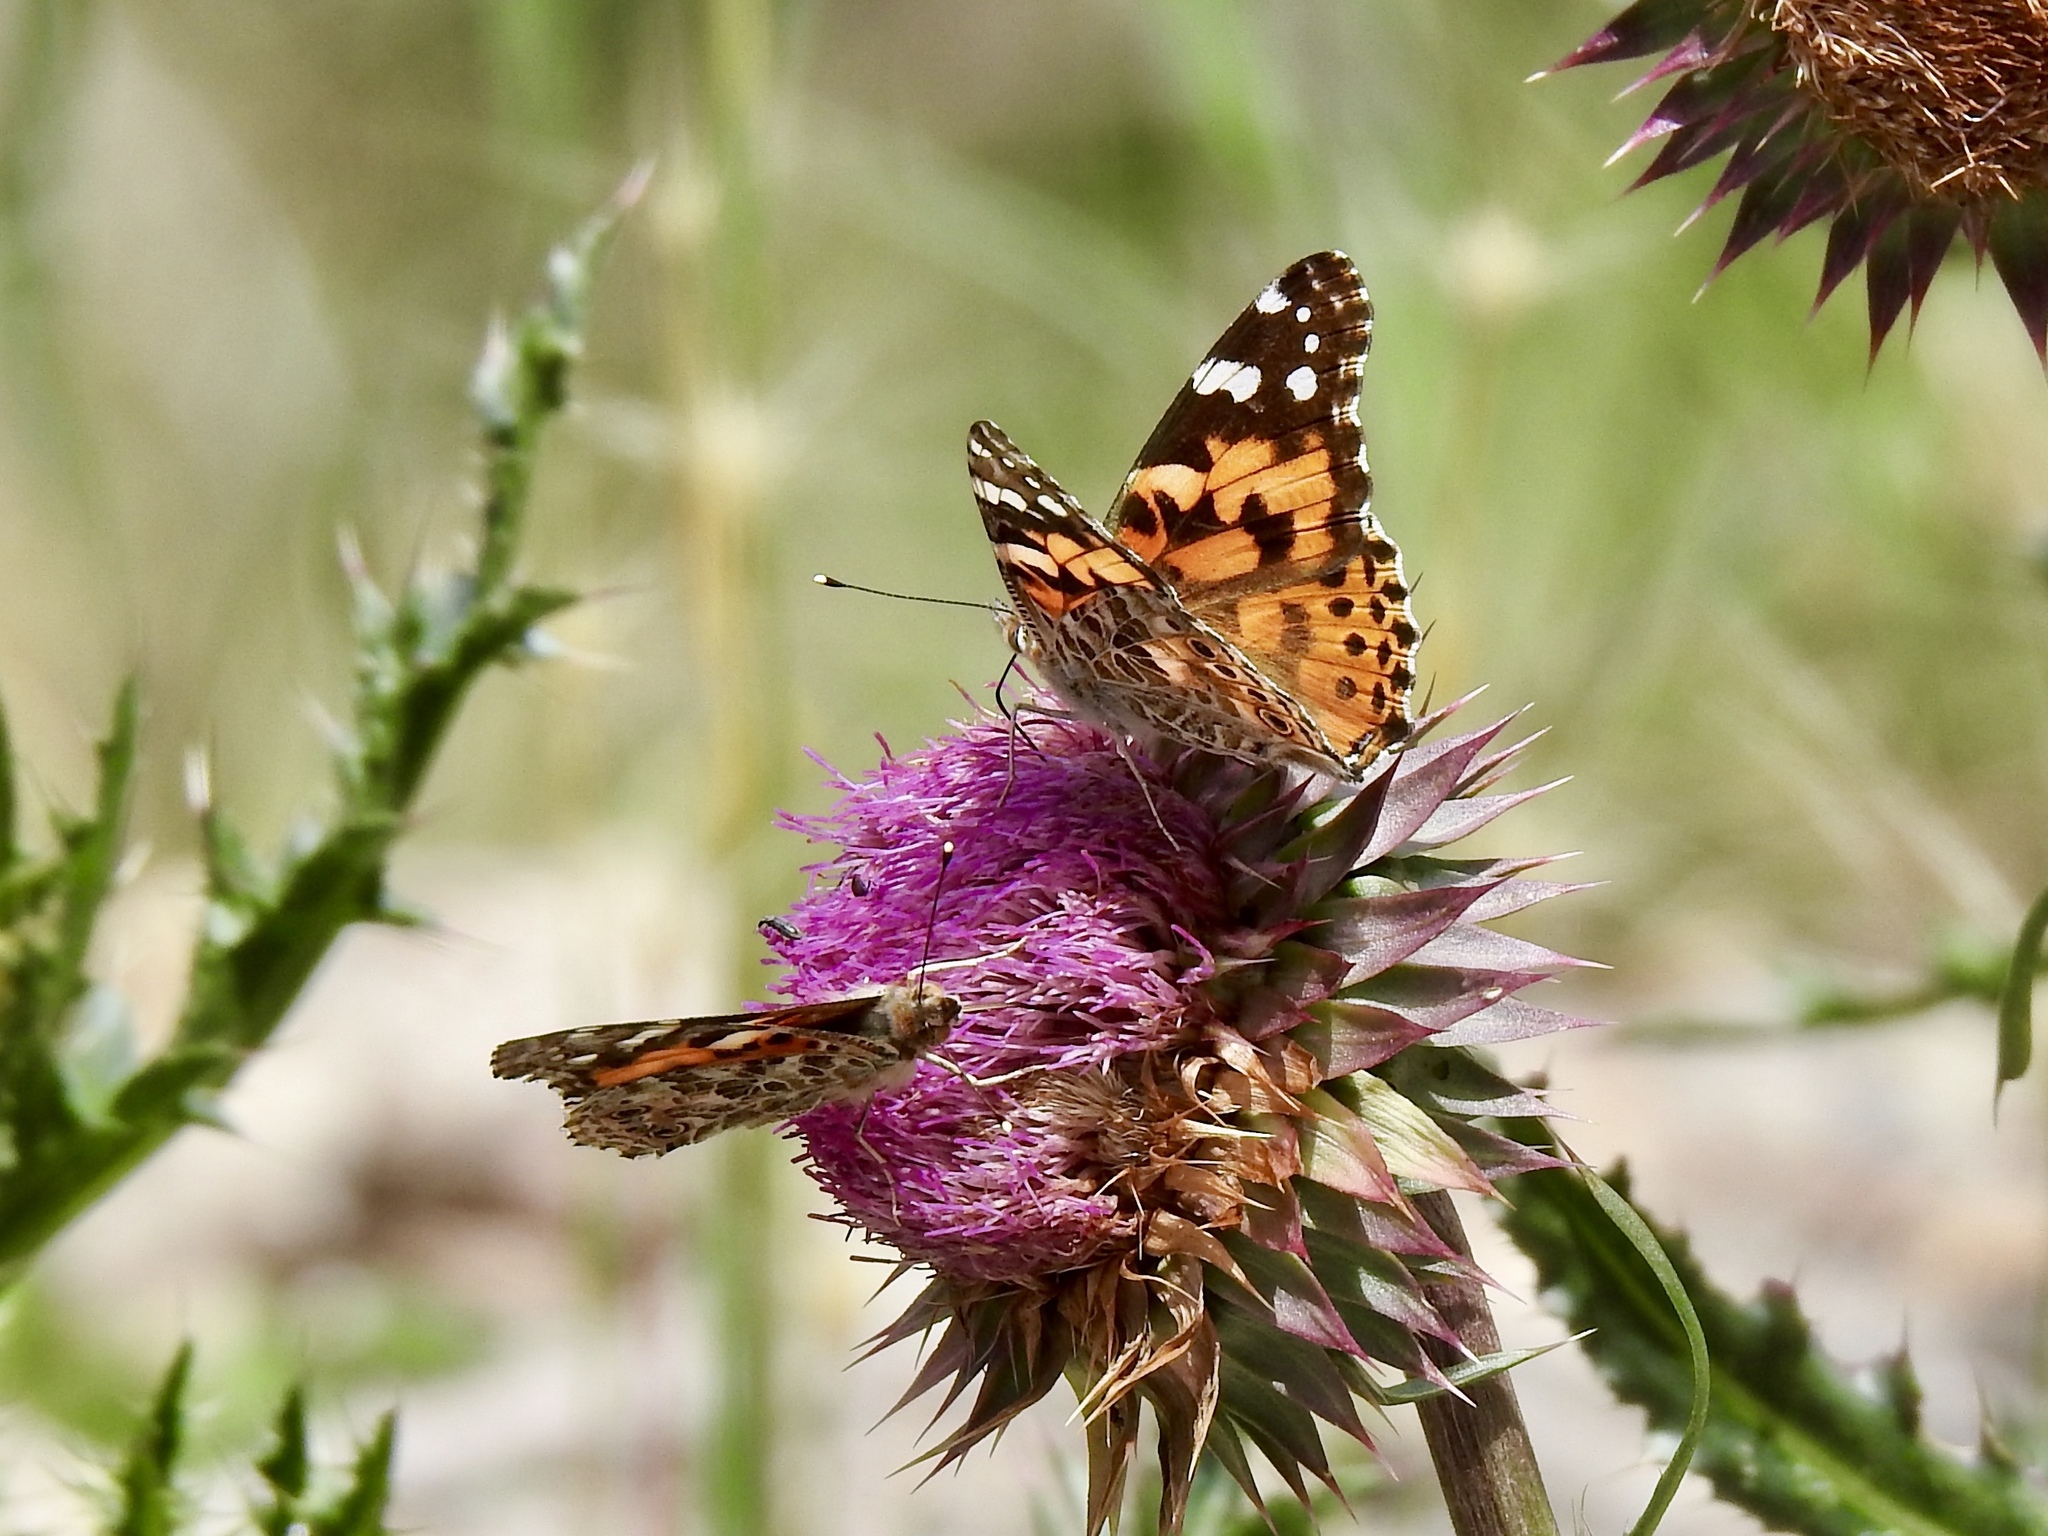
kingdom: Animalia
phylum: Arthropoda
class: Insecta
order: Lepidoptera
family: Nymphalidae
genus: Vanessa
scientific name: Vanessa cardui
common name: Painted lady
